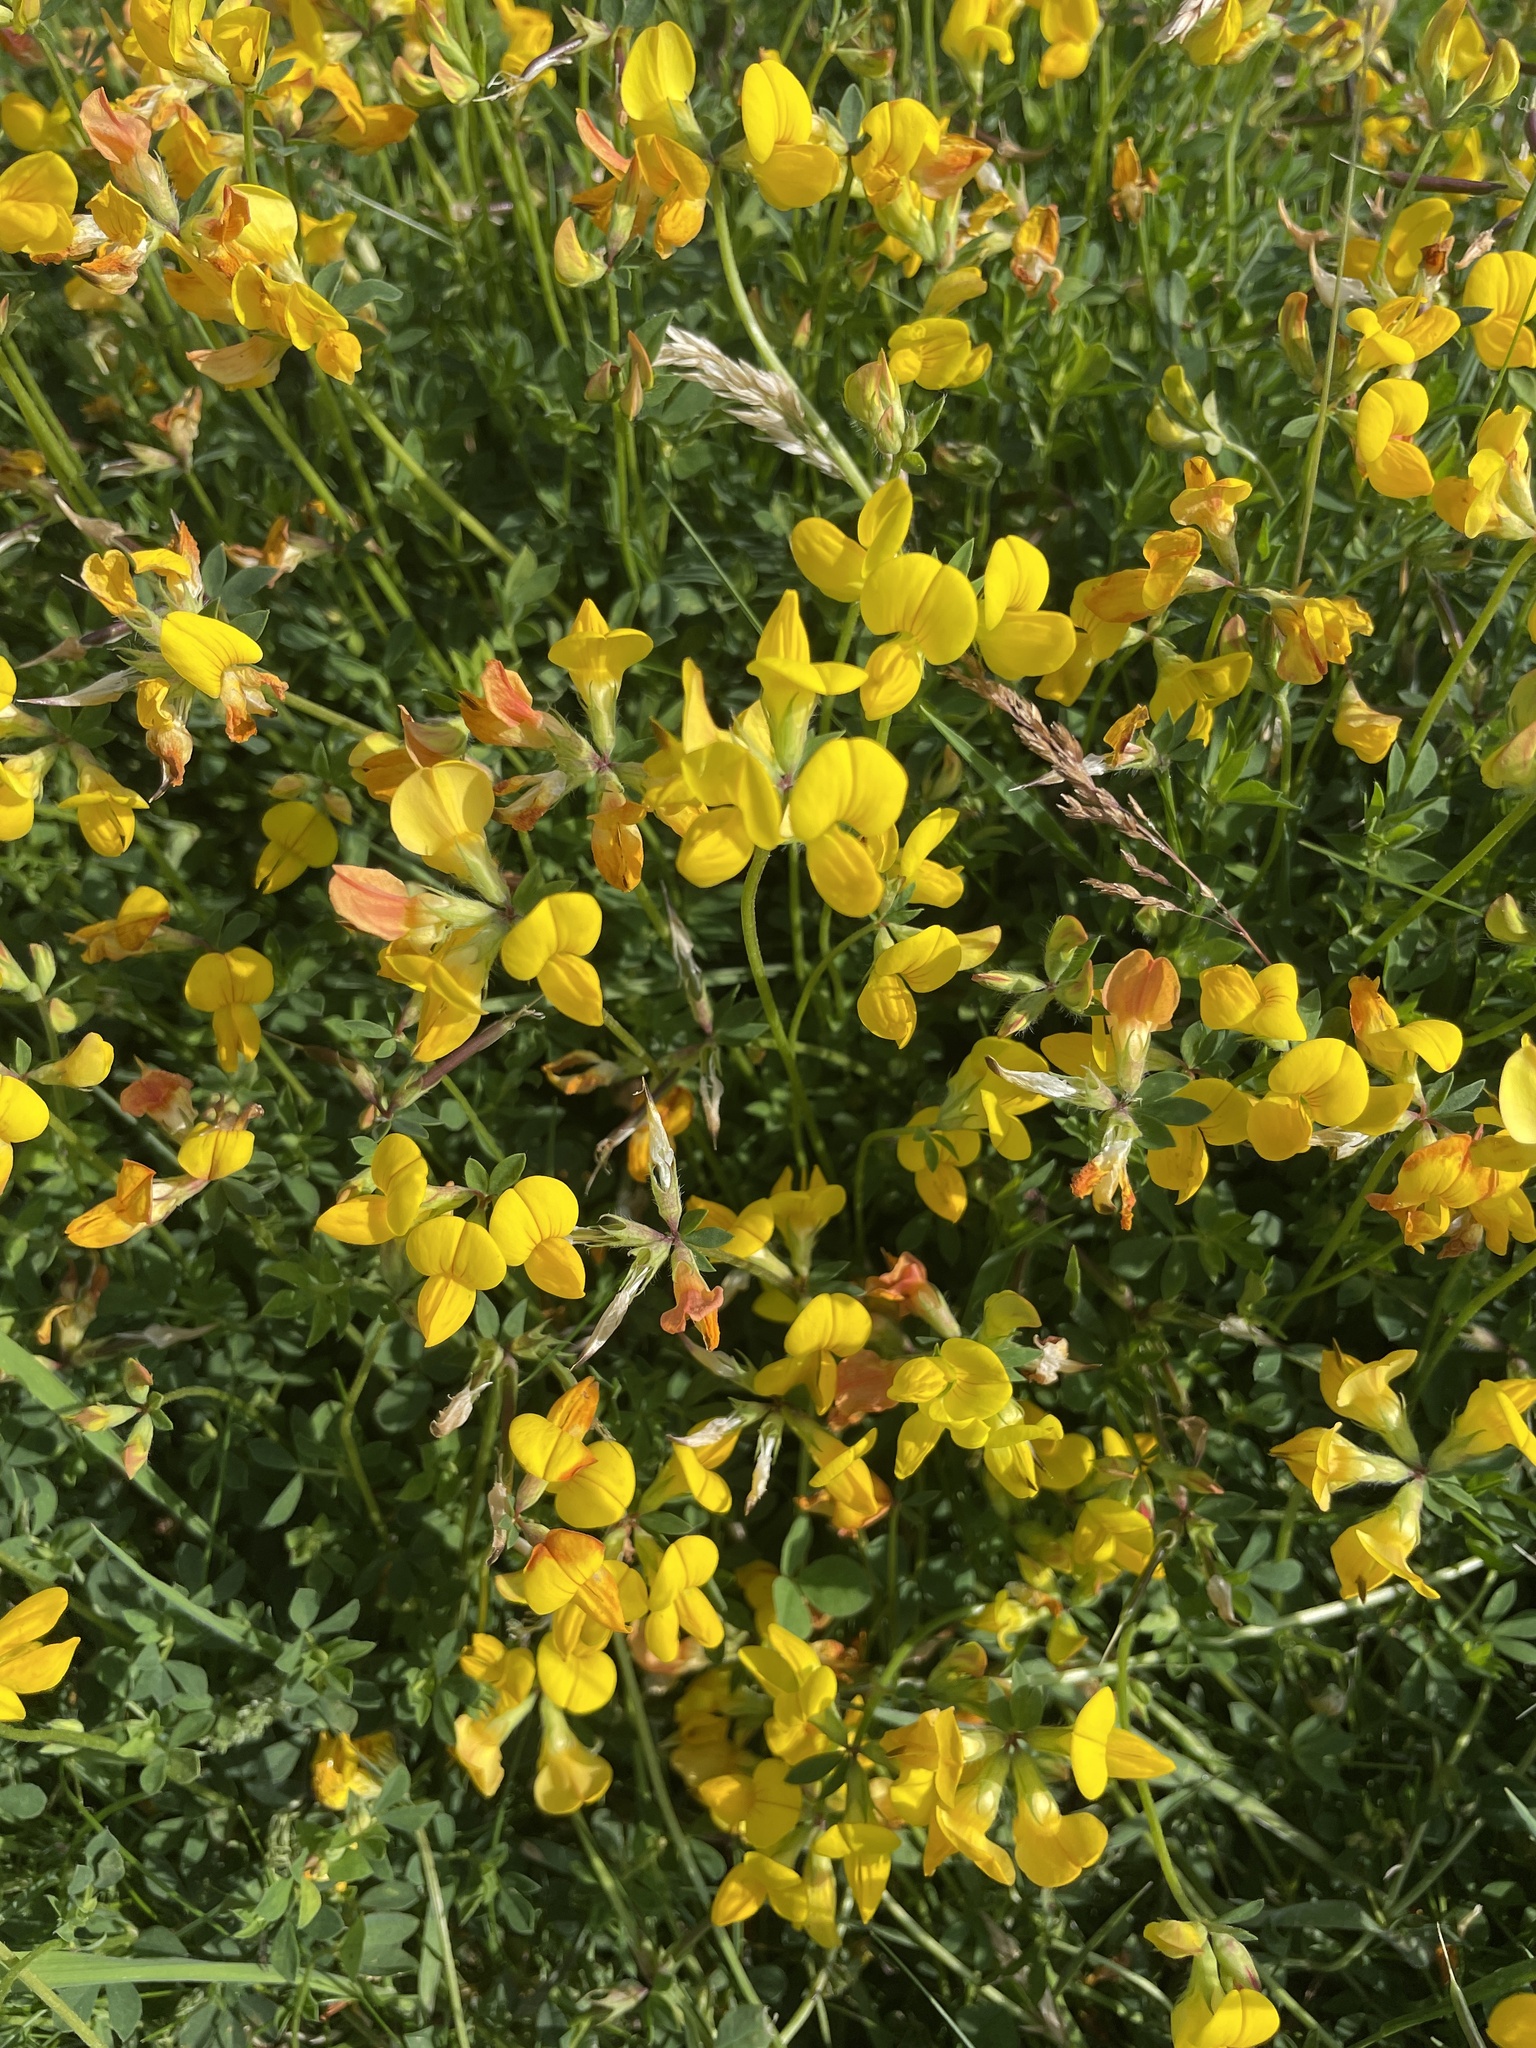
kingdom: Plantae
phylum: Tracheophyta
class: Magnoliopsida
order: Fabales
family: Fabaceae
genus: Lotus
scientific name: Lotus corniculatus
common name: Common bird's-foot-trefoil
